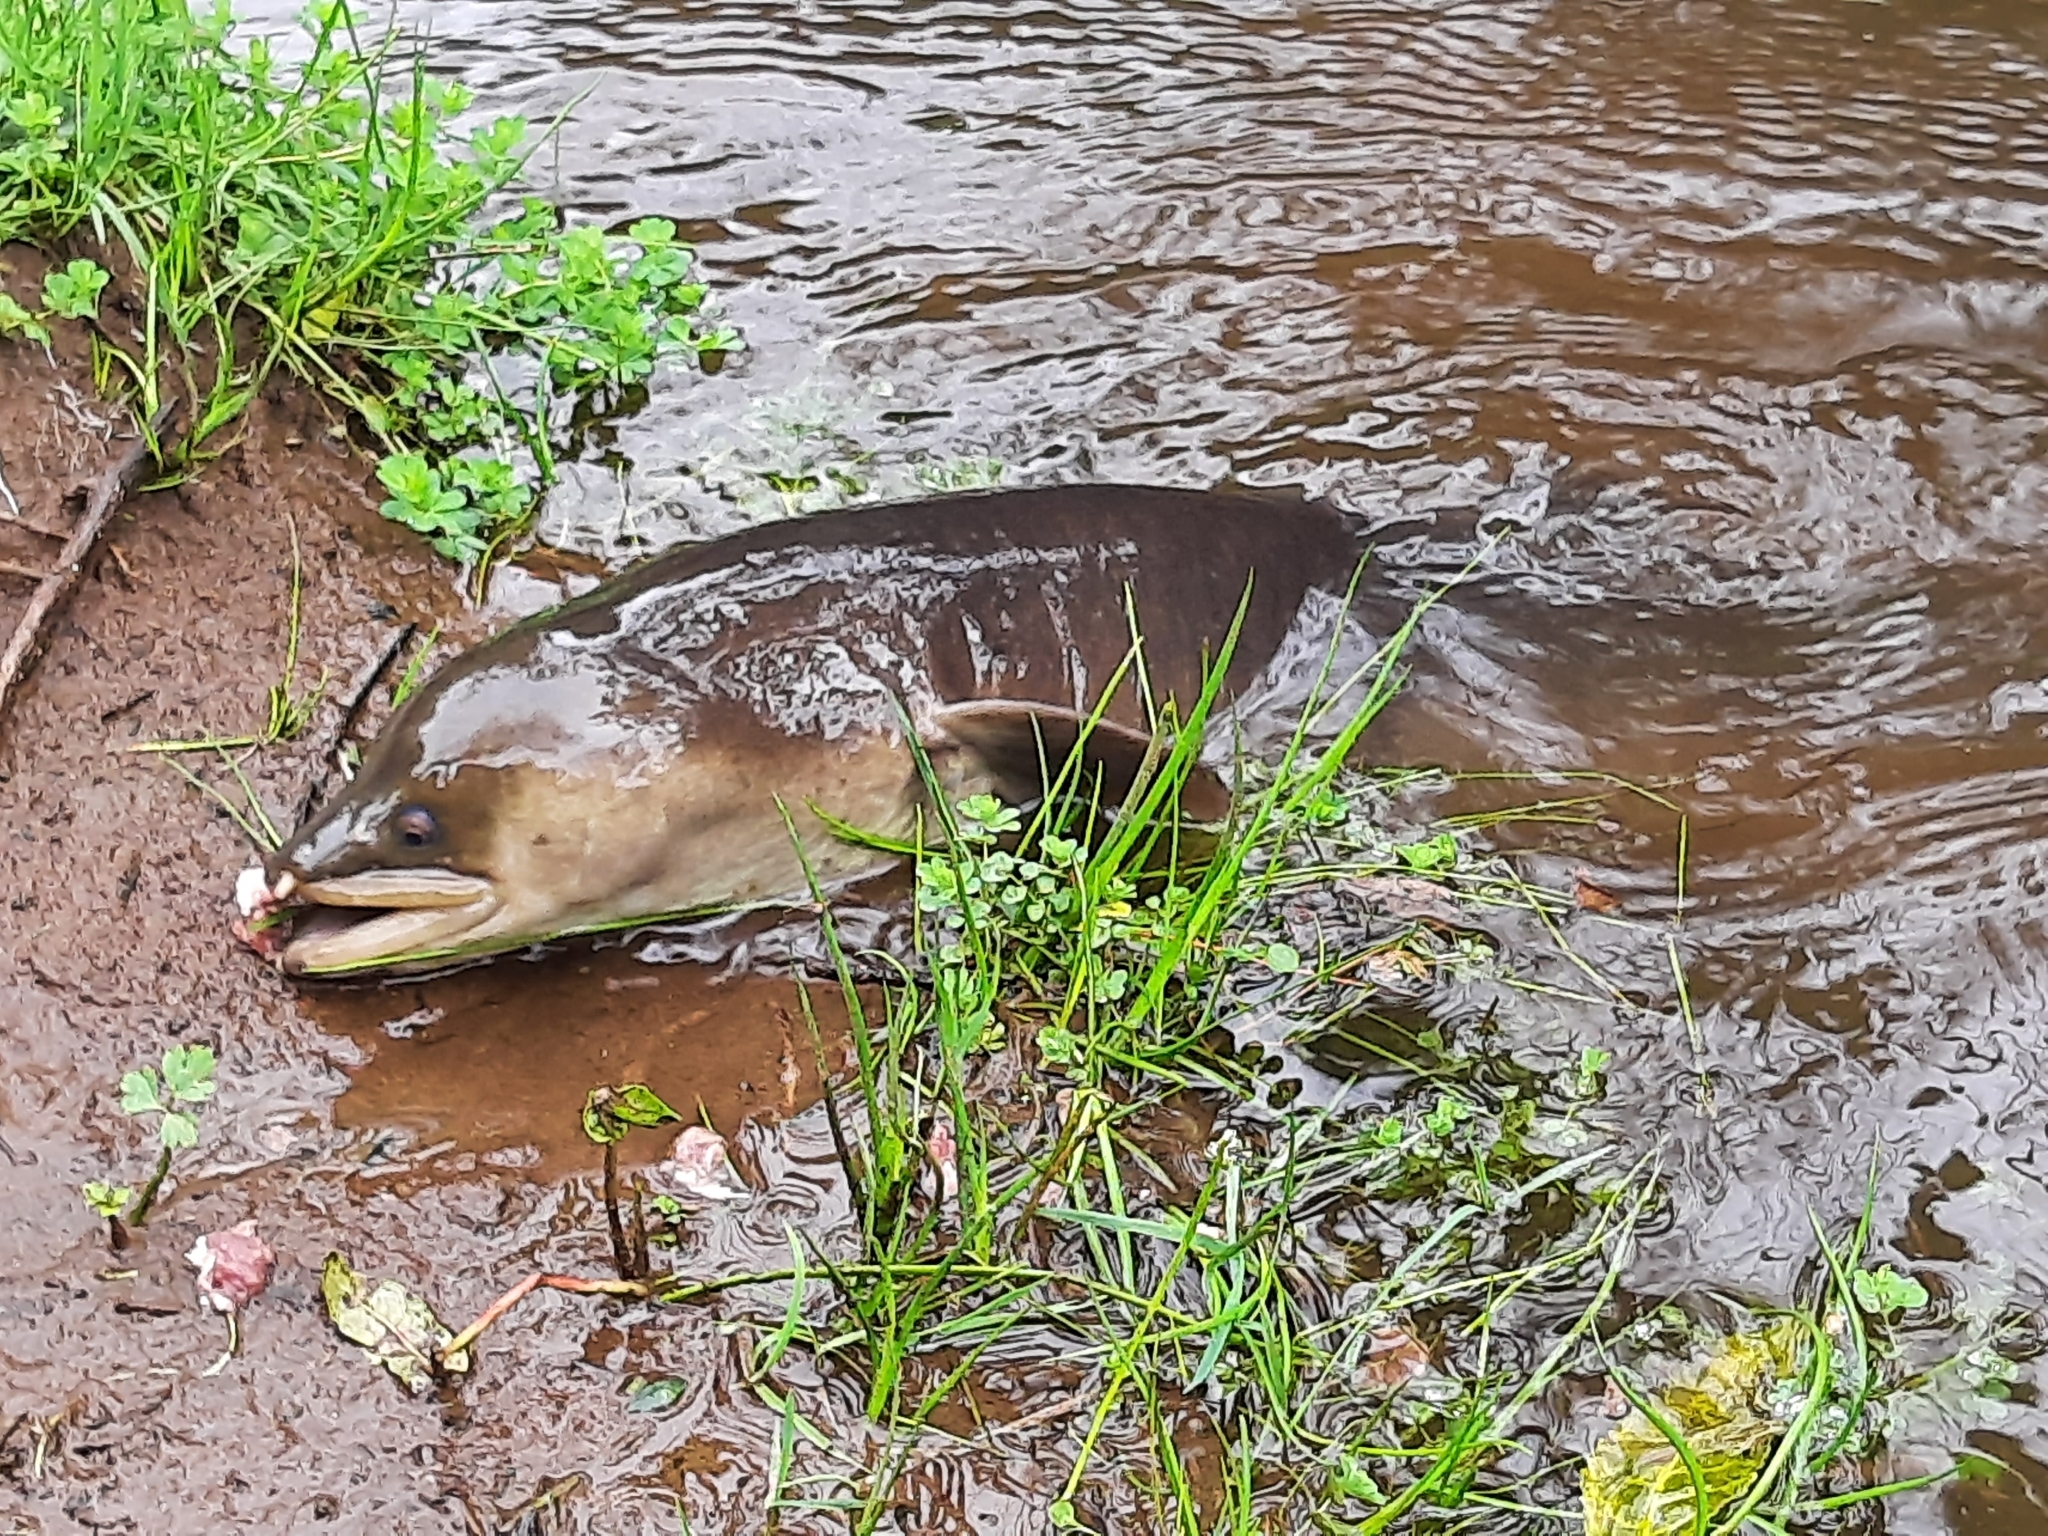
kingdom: Animalia
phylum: Chordata
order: Anguilliformes
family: Anguillidae
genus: Anguilla
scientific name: Anguilla dieffenbachii
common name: New zealand longfin eel
